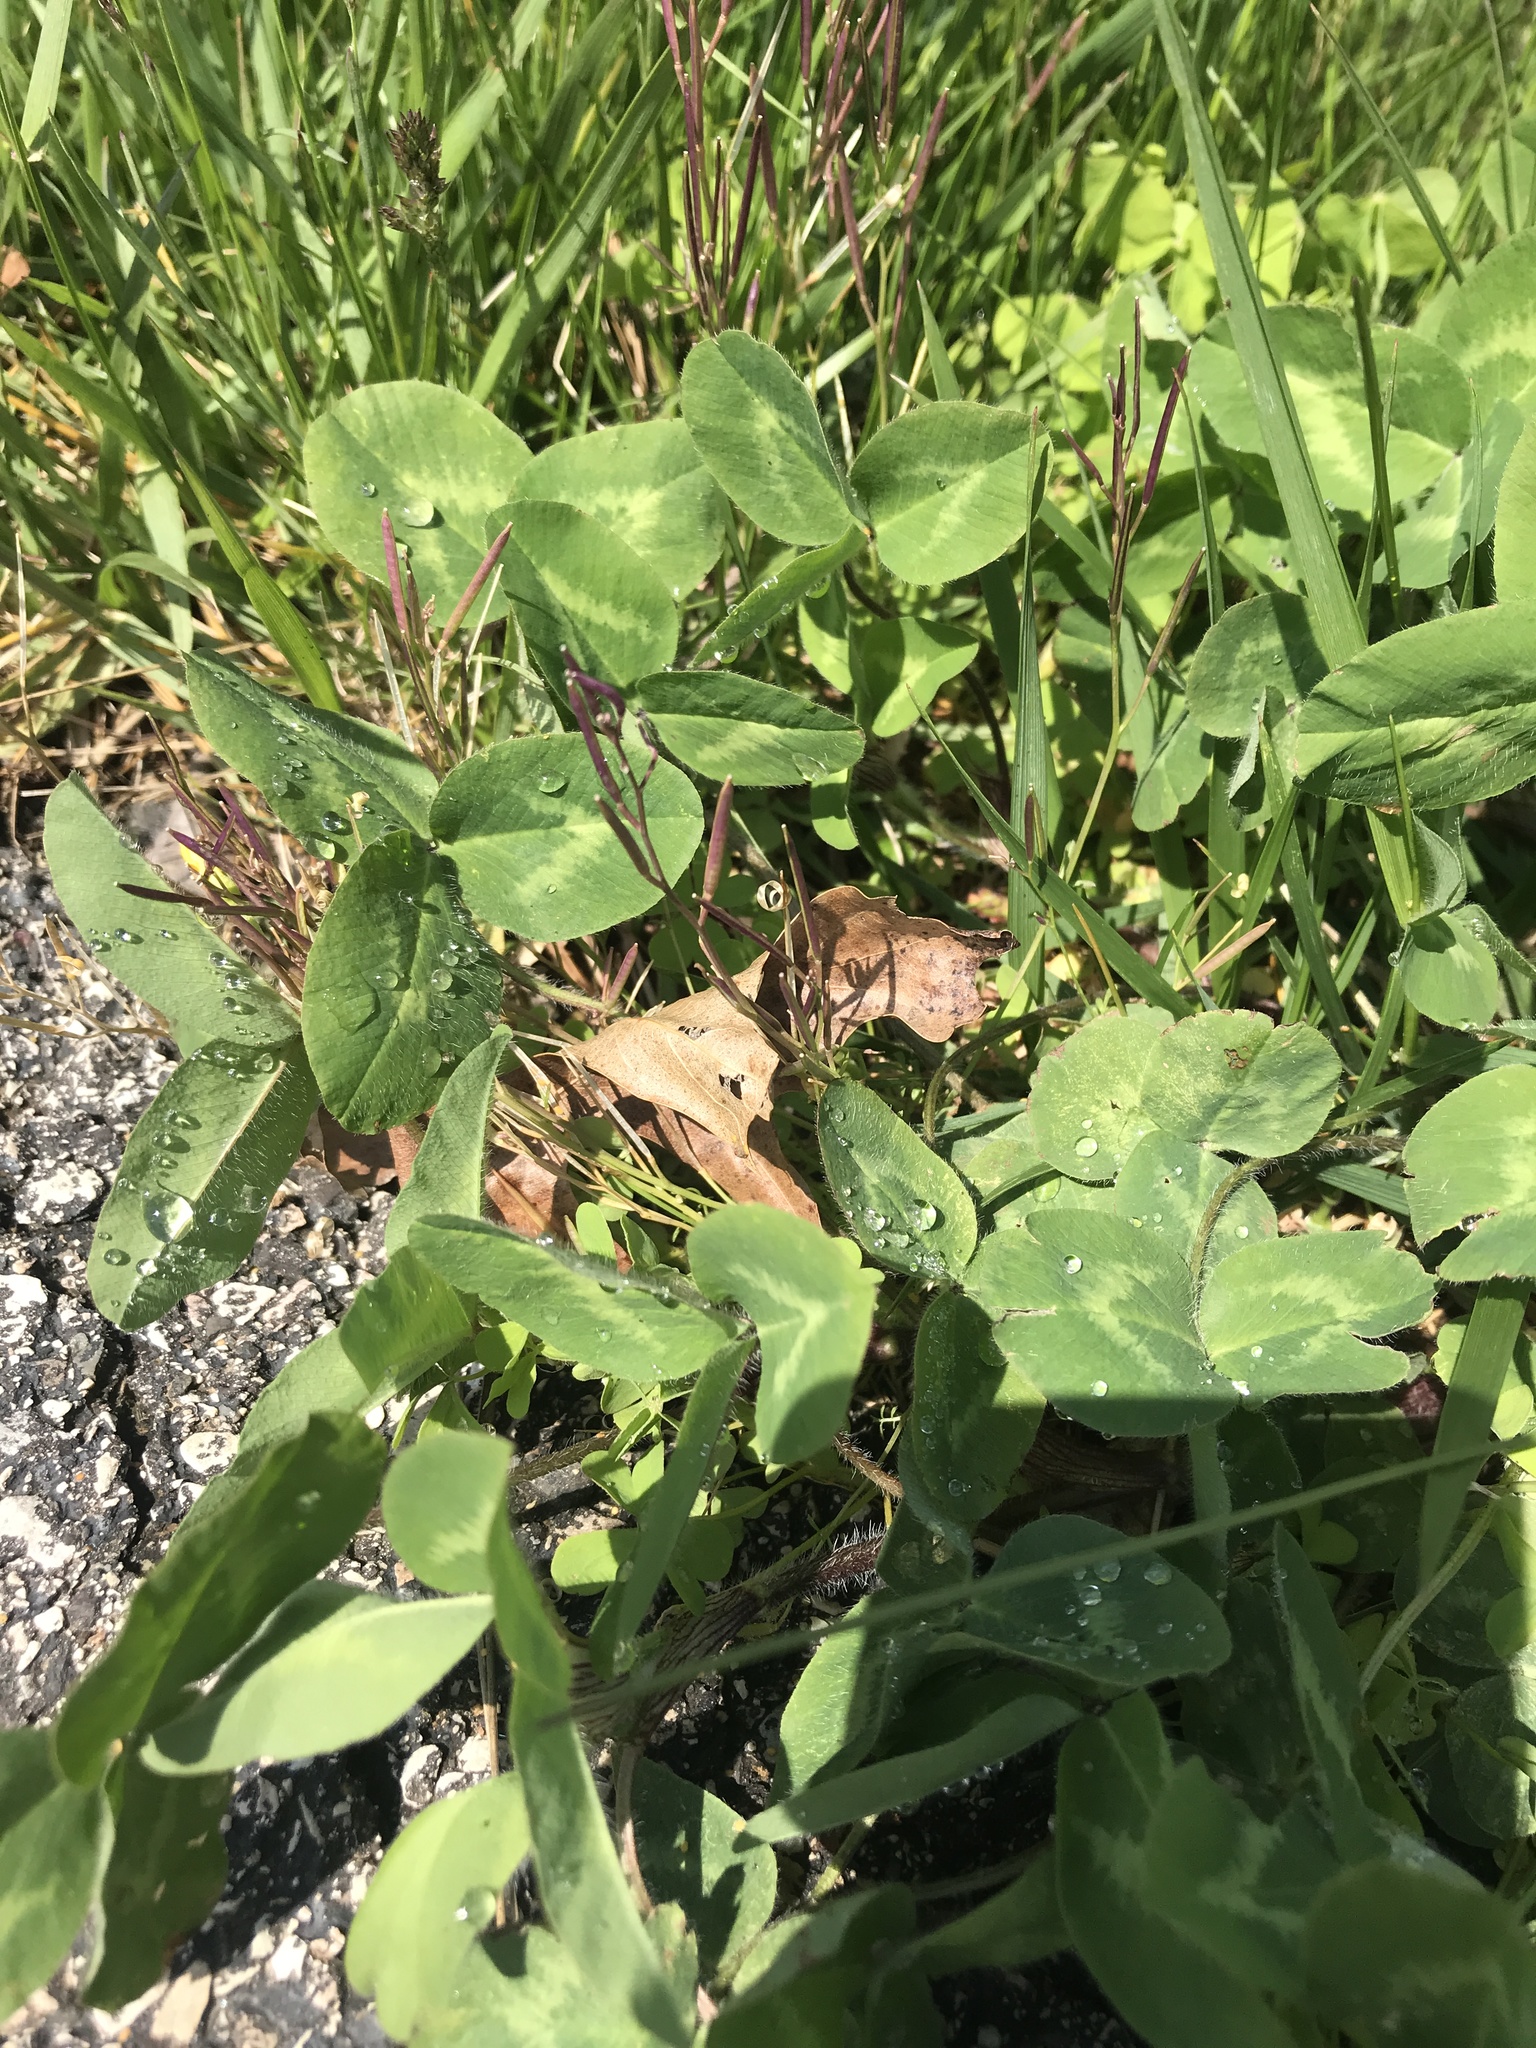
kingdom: Plantae
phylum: Tracheophyta
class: Magnoliopsida
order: Fabales
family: Fabaceae
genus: Trifolium
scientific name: Trifolium pratense
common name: Red clover
